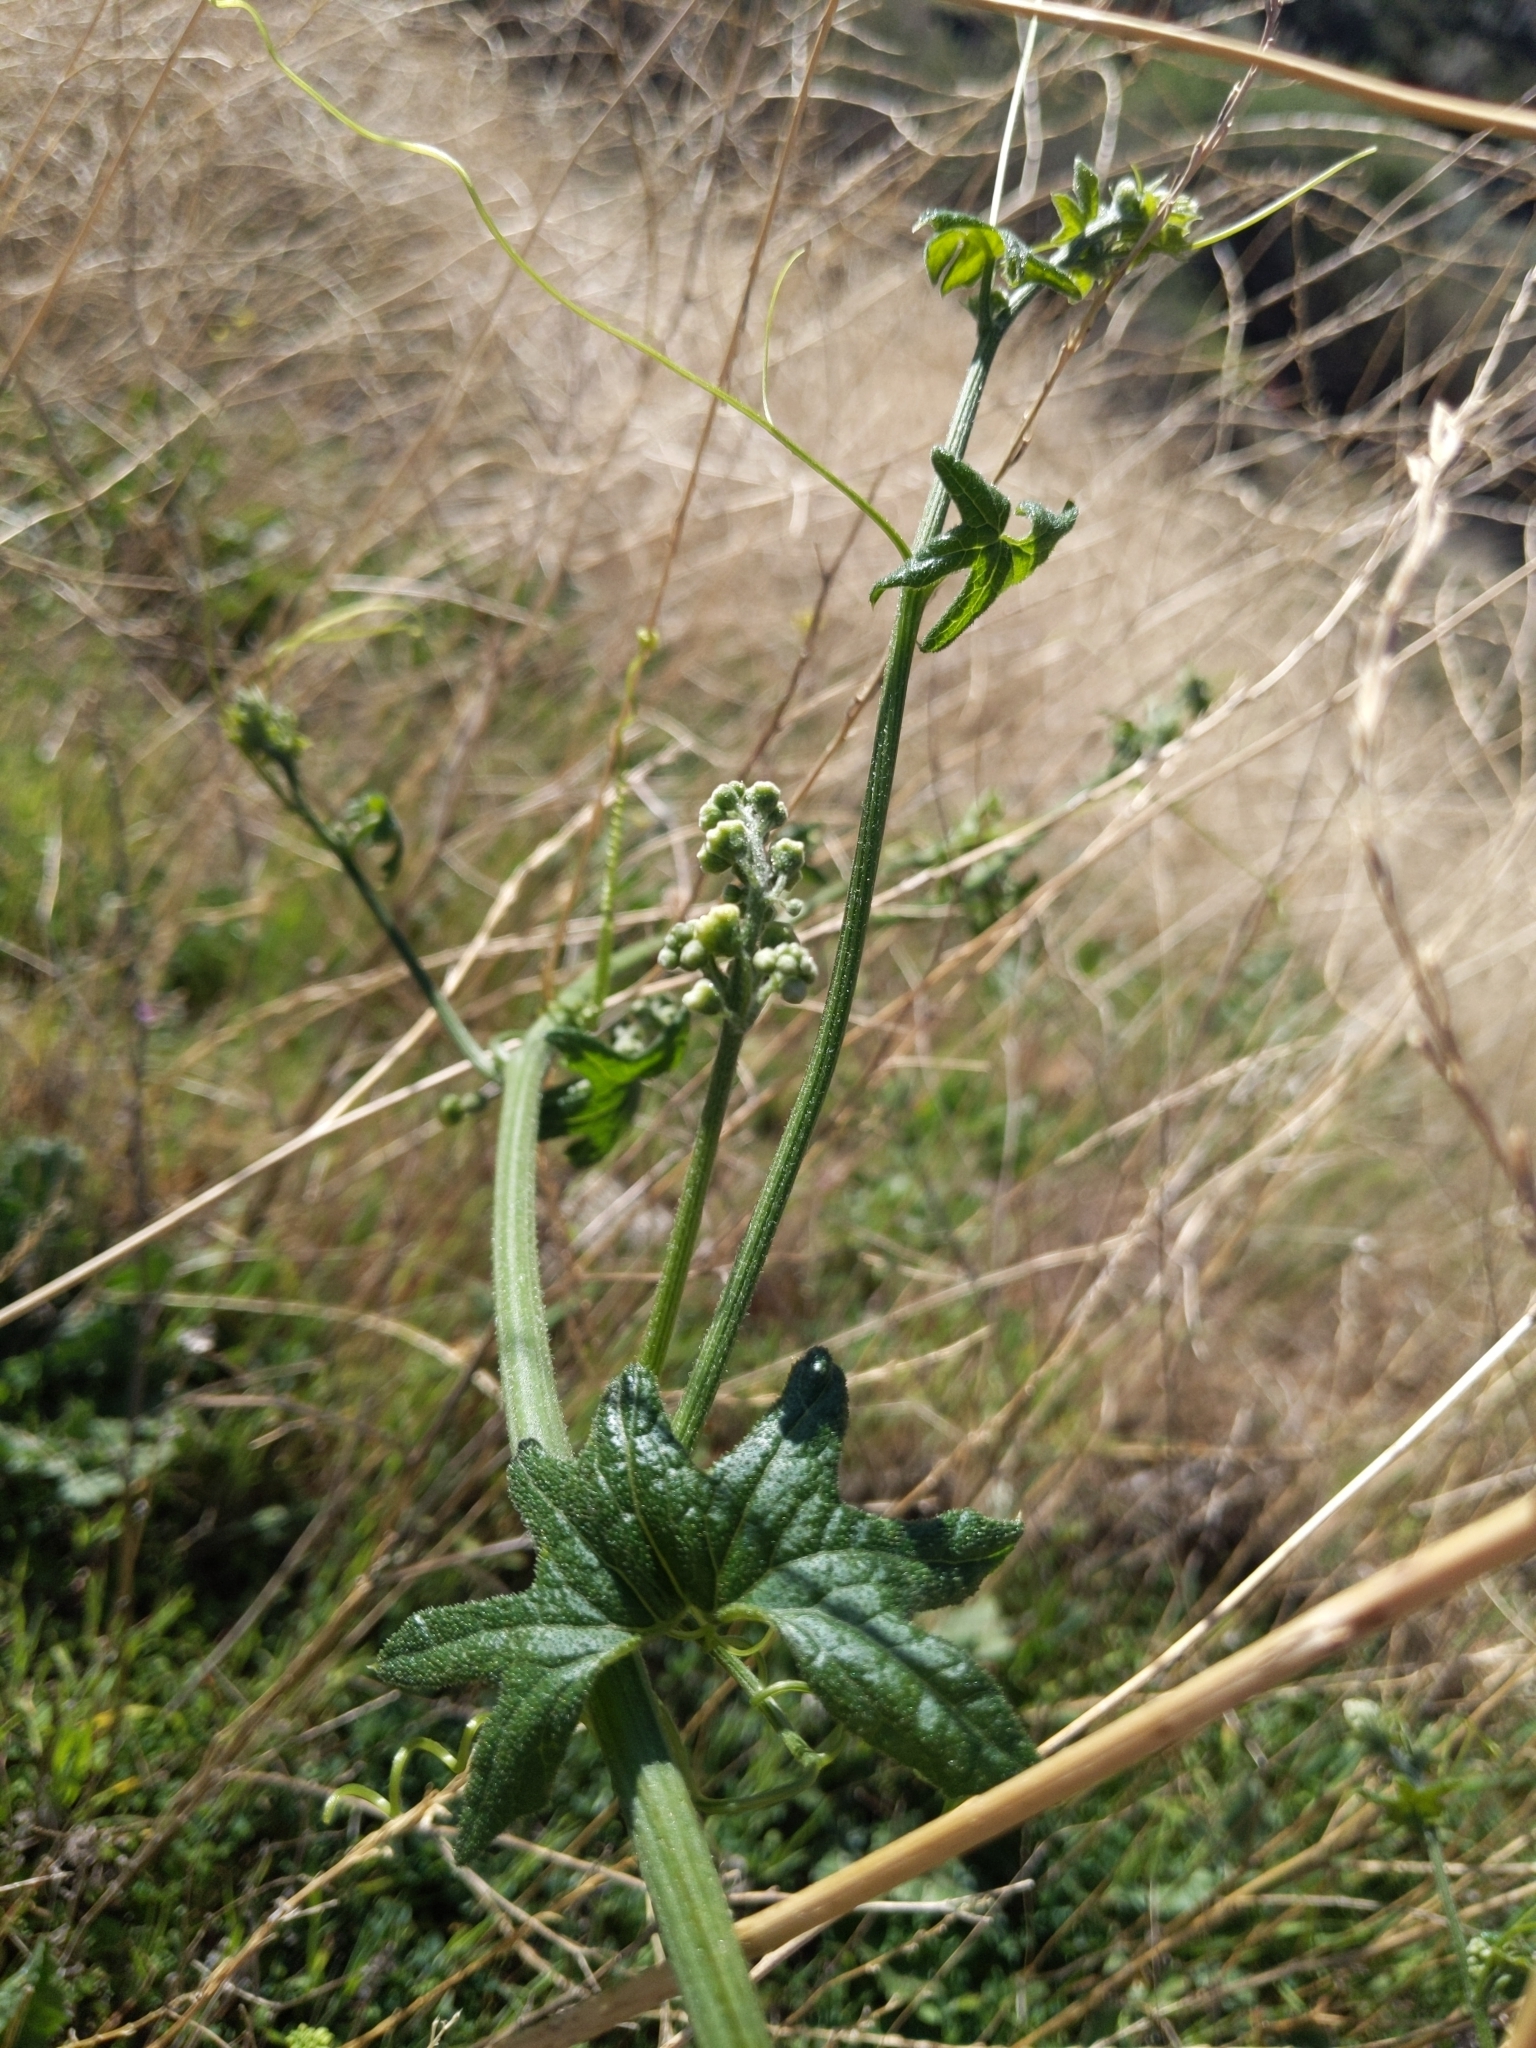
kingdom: Plantae
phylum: Tracheophyta
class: Magnoliopsida
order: Cucurbitales
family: Cucurbitaceae
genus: Marah
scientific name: Marah macrocarpa
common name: Cucamonga manroot
